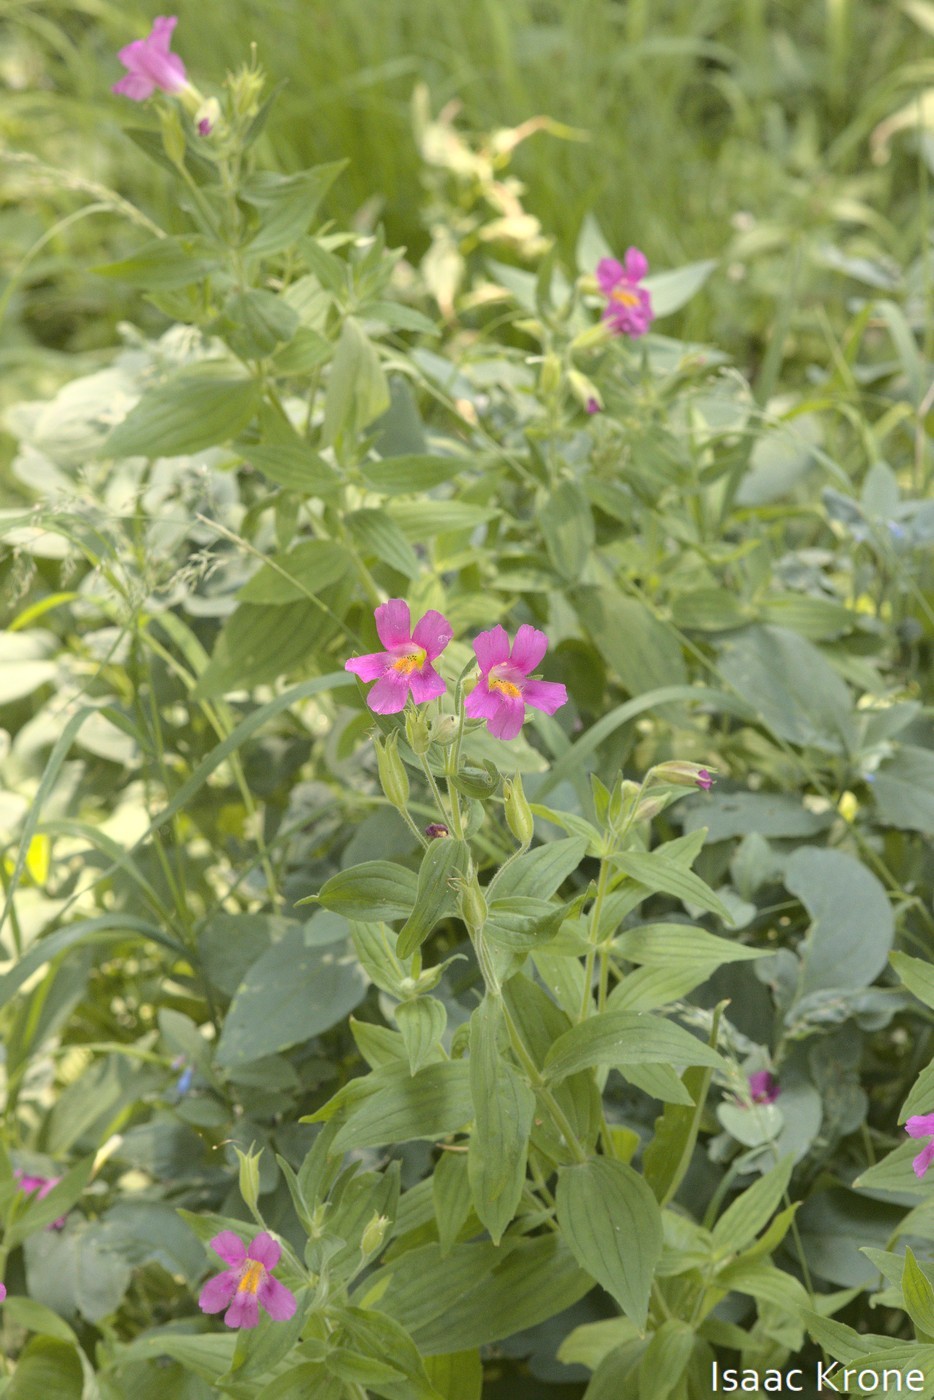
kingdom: Plantae
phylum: Tracheophyta
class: Magnoliopsida
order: Lamiales
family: Phrymaceae
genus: Erythranthe
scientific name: Erythranthe lewisii
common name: Lewis's monkey-flower
